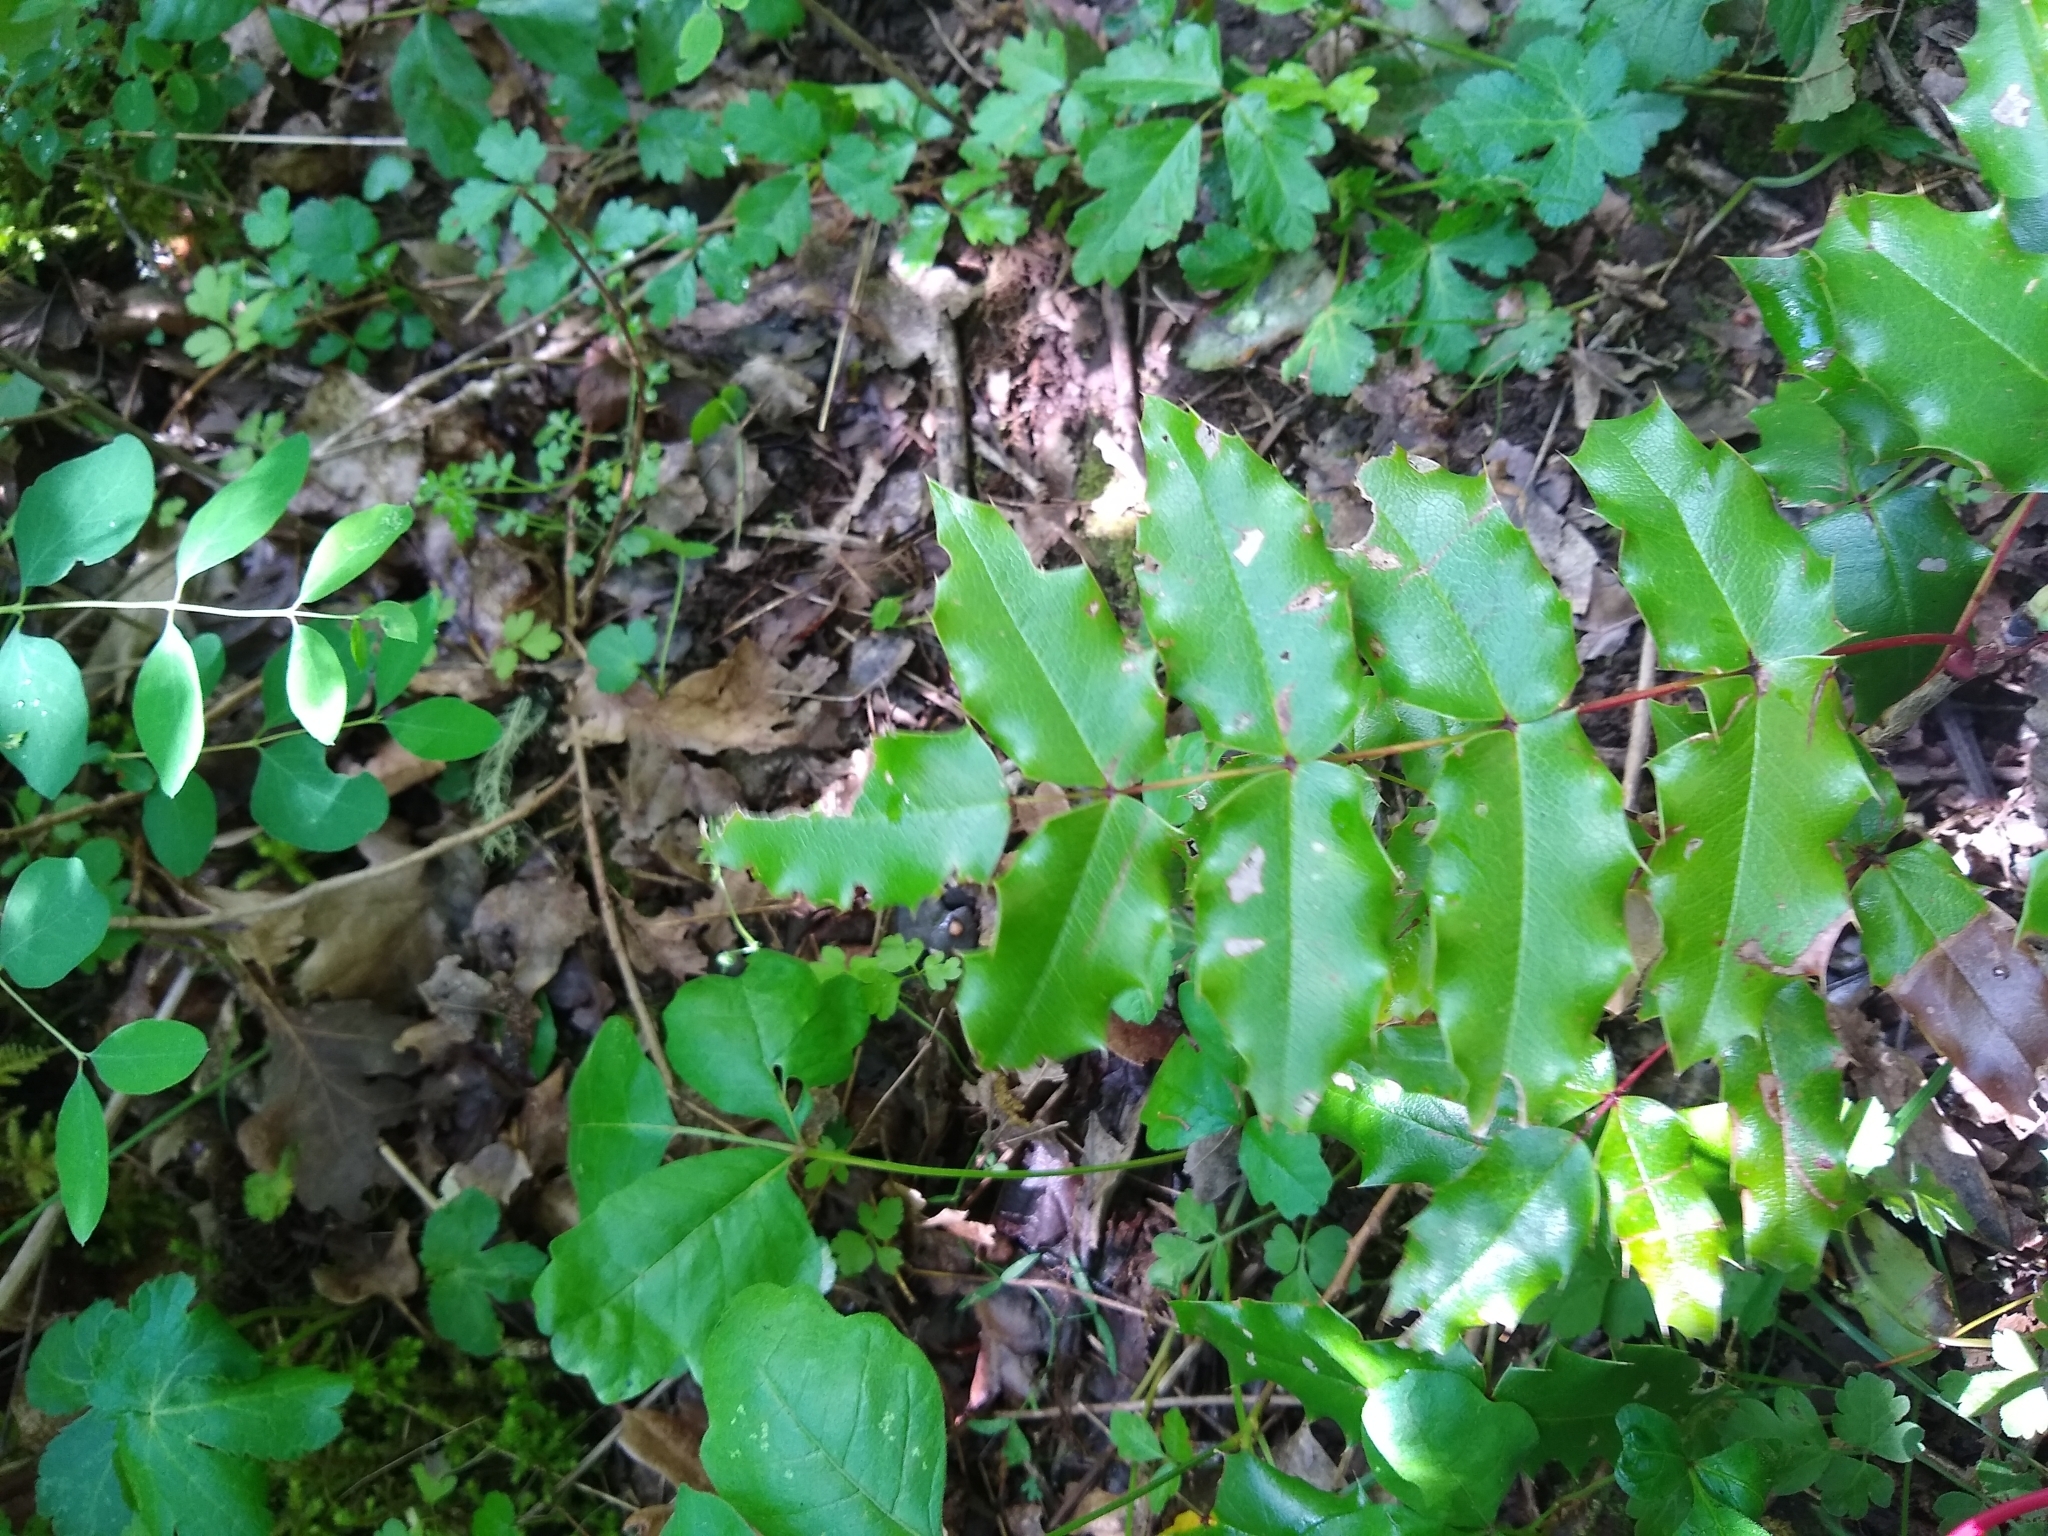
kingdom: Plantae
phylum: Tracheophyta
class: Magnoliopsida
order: Ranunculales
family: Berberidaceae
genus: Mahonia
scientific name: Mahonia aquifolium
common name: Oregon-grape
